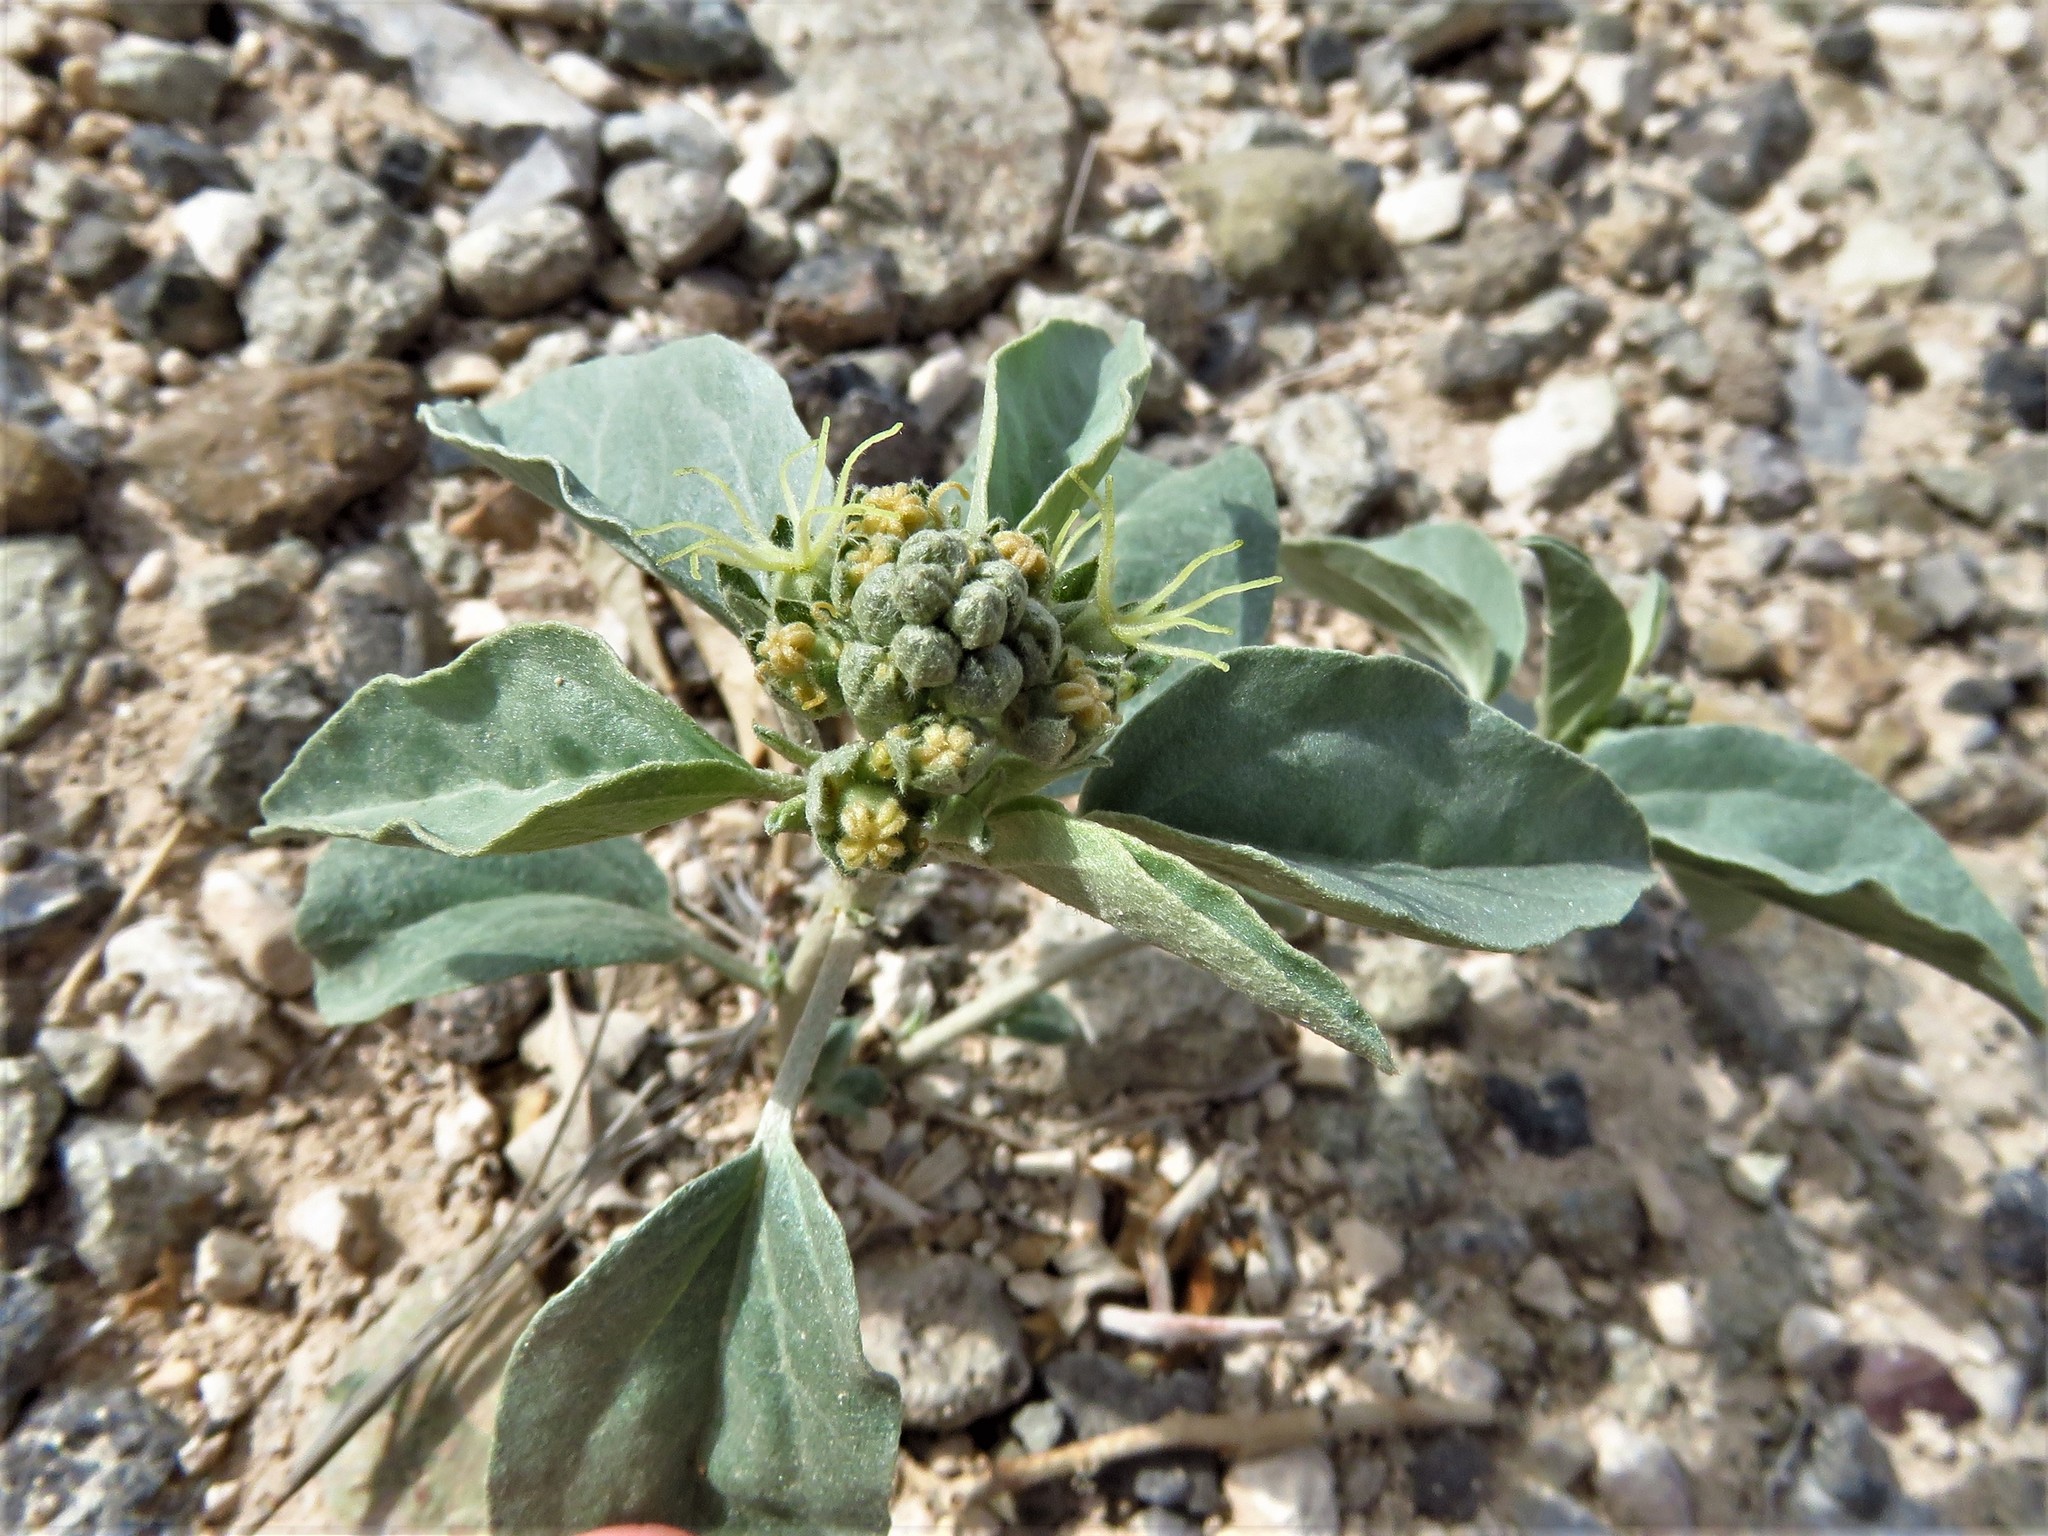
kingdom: Plantae
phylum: Tracheophyta
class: Magnoliopsida
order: Malpighiales
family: Euphorbiaceae
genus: Croton
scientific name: Croton pottsii
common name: Leatherweed
